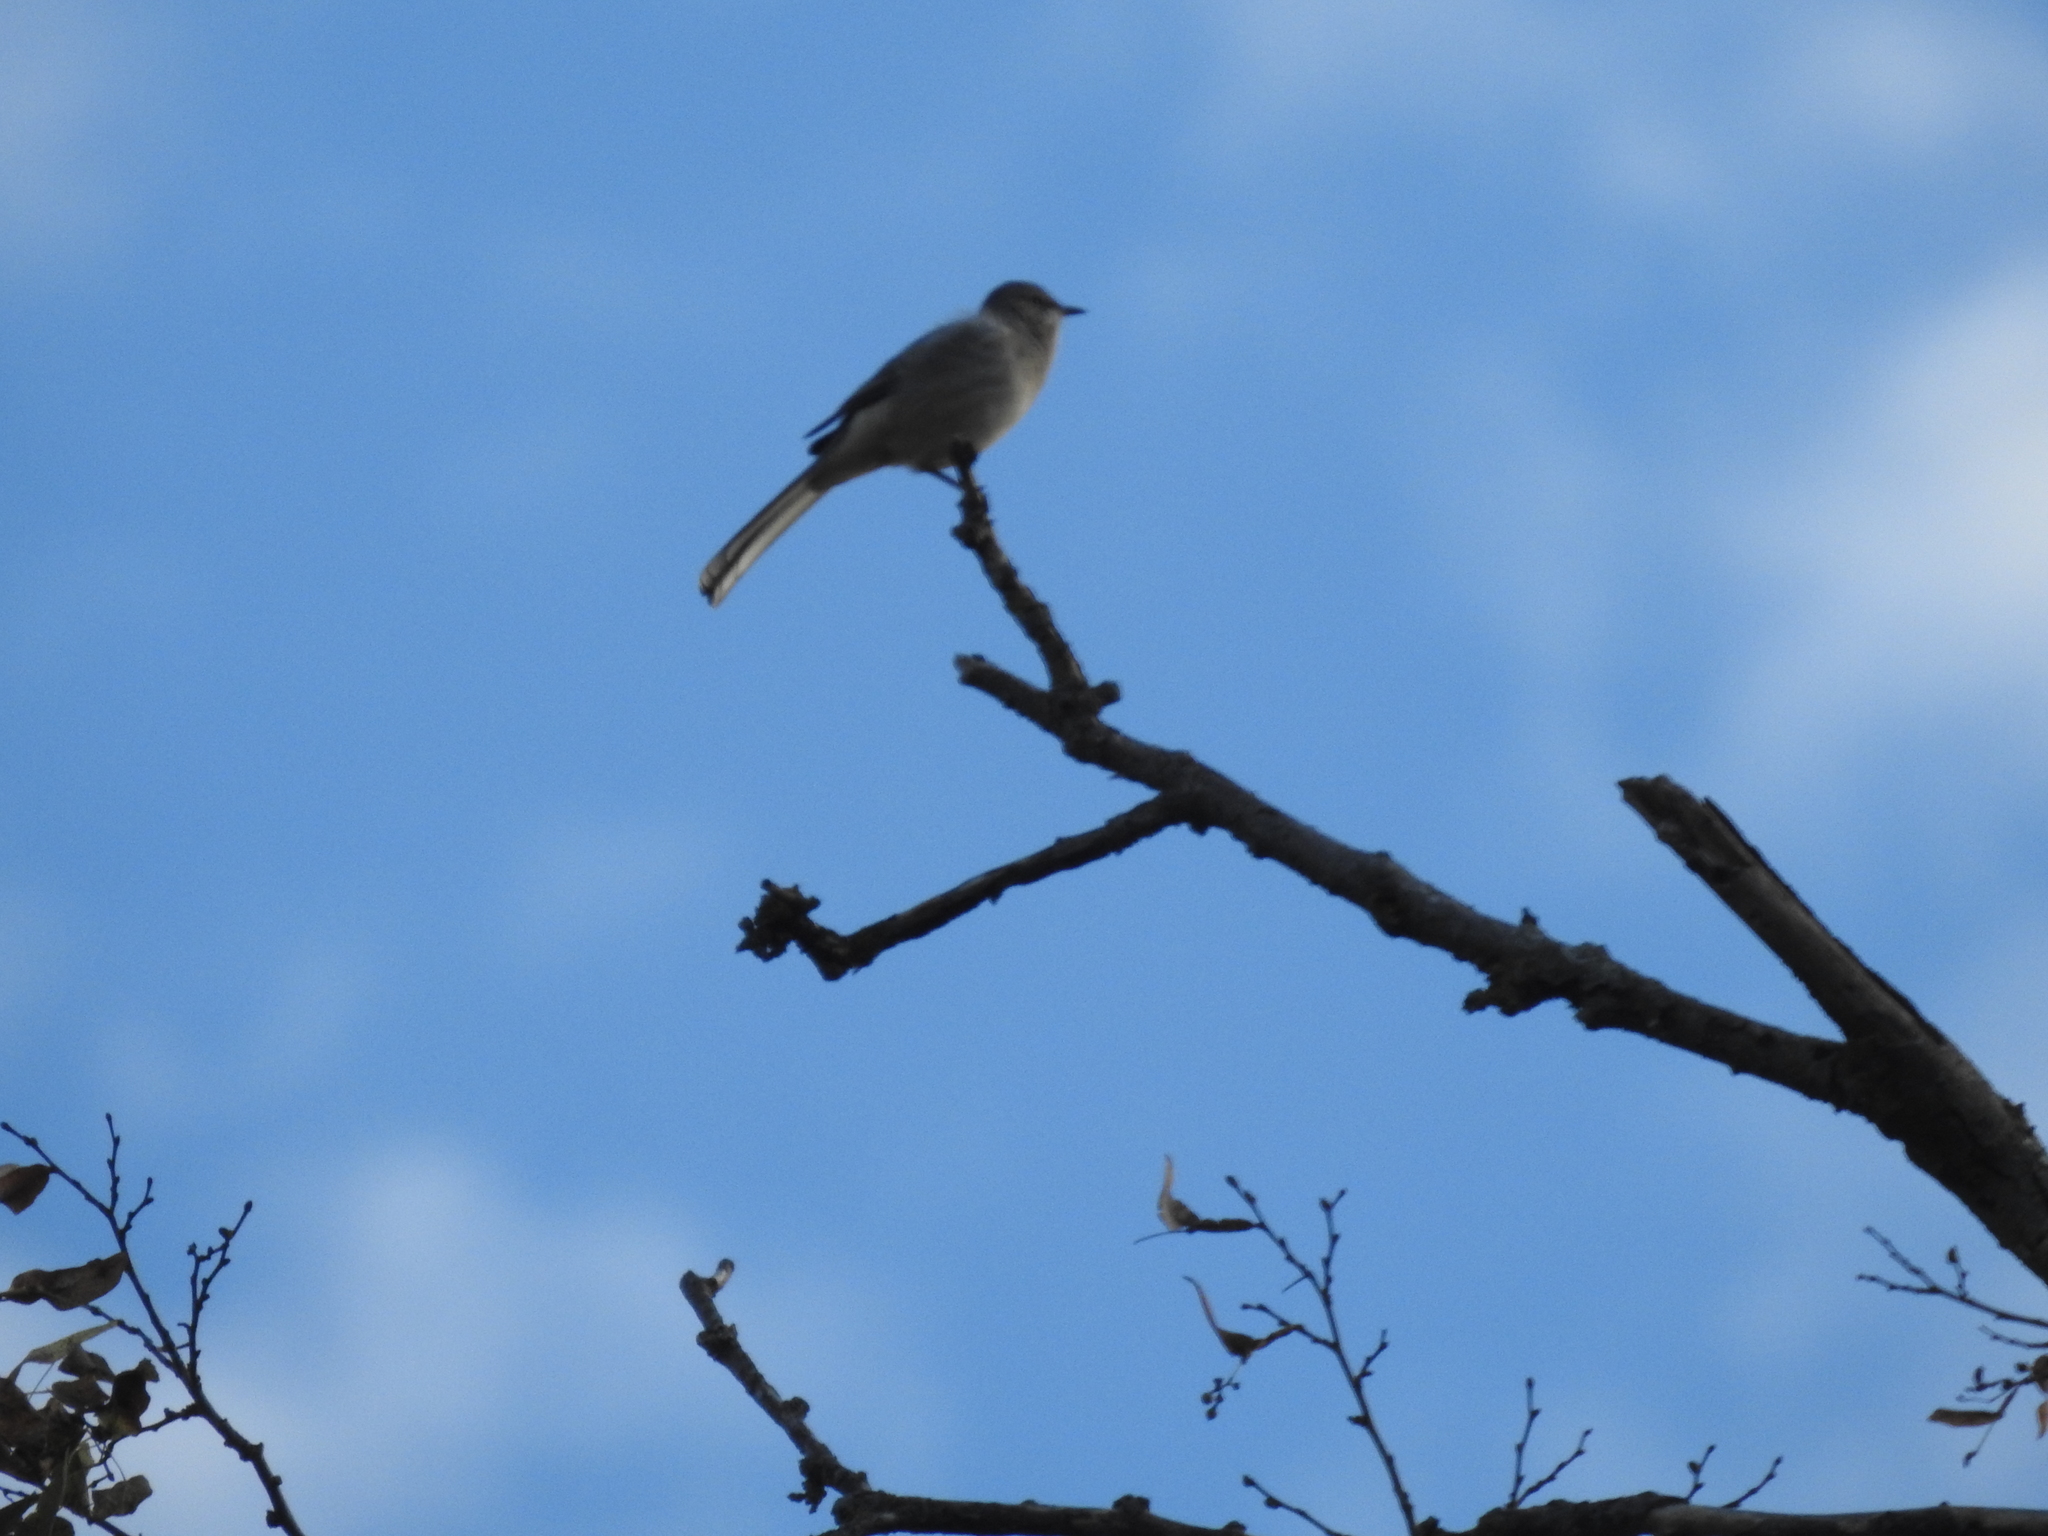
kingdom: Animalia
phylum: Chordata
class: Aves
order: Passeriformes
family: Mimidae
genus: Mimus
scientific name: Mimus polyglottos
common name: Northern mockingbird
